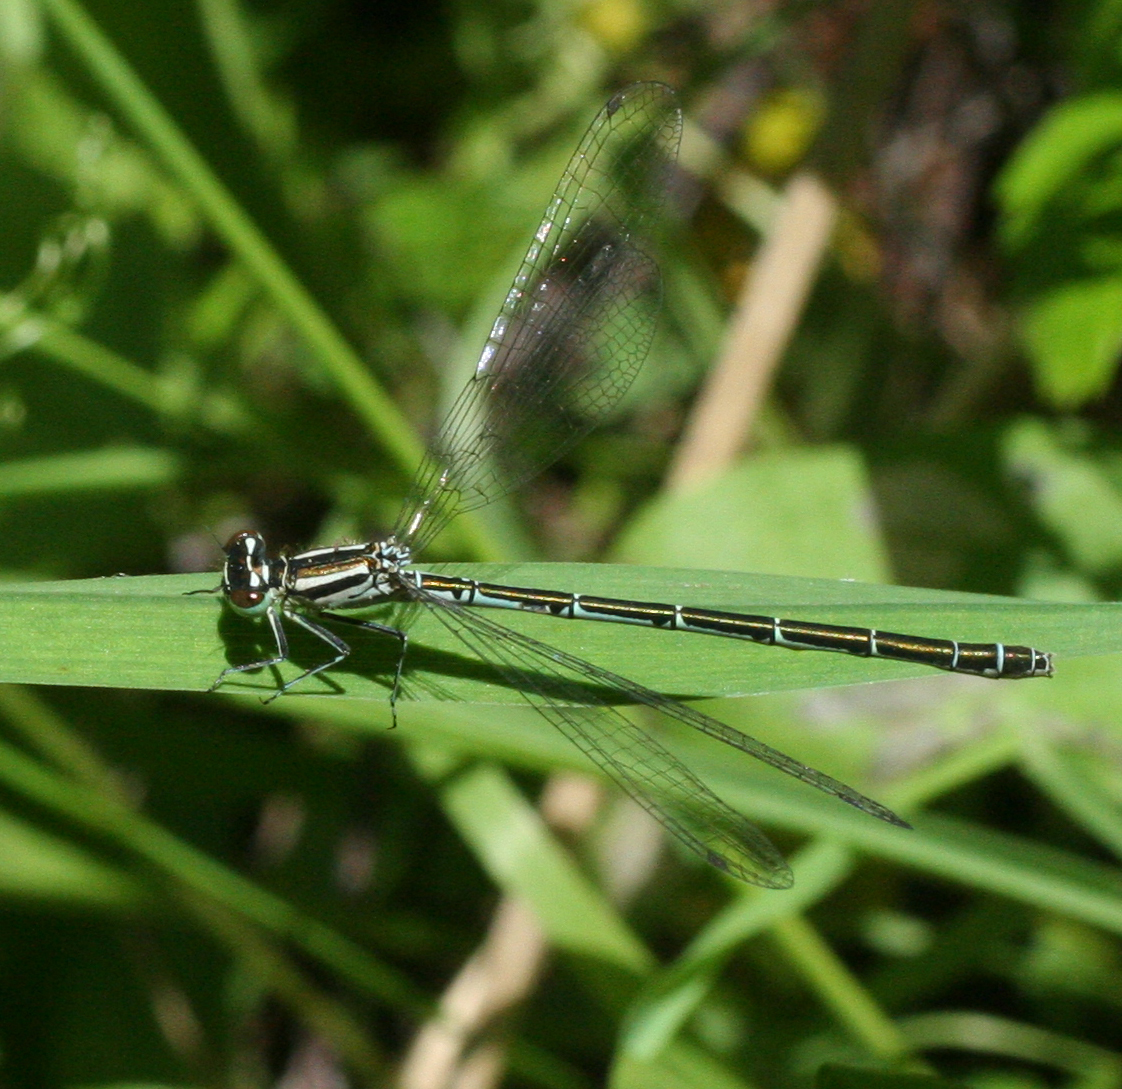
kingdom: Animalia
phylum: Arthropoda
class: Insecta
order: Odonata
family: Coenagrionidae
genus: Coenagrion
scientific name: Coenagrion hastulatum
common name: Spearhead bluet
